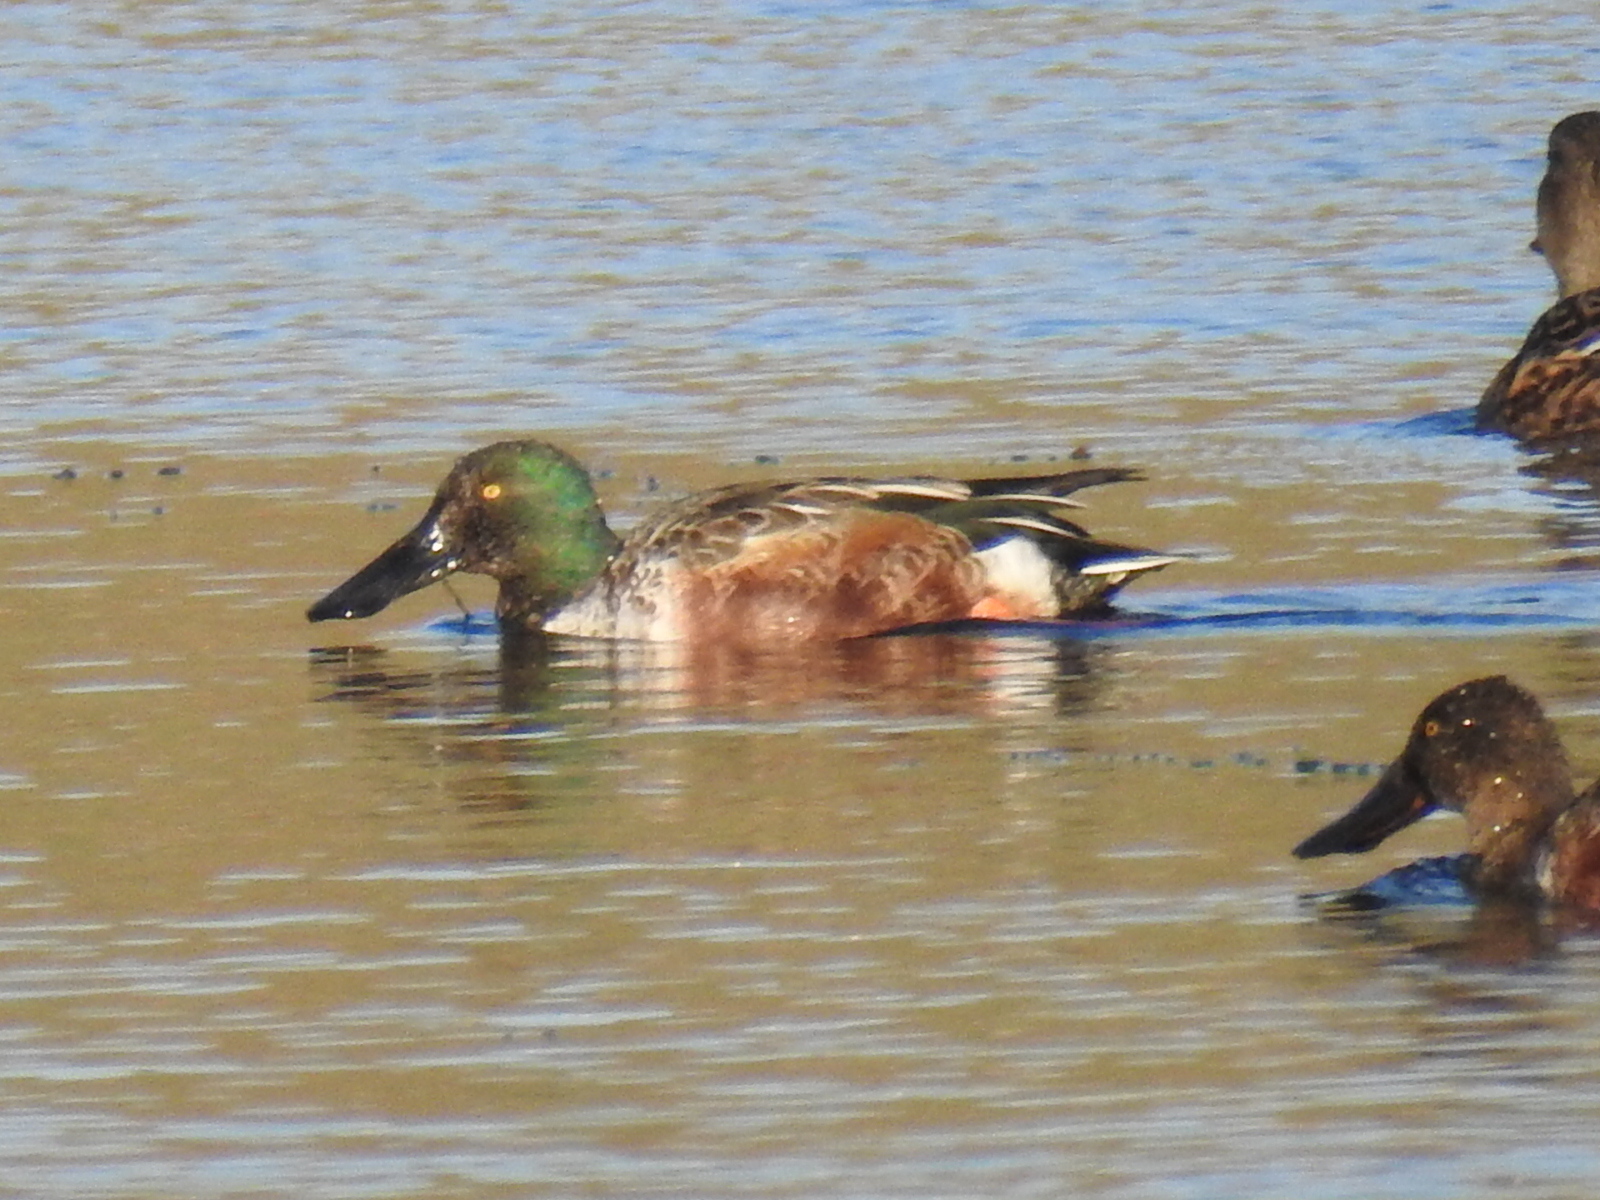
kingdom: Animalia
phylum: Chordata
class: Aves
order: Anseriformes
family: Anatidae
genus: Spatula
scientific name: Spatula clypeata
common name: Northern shoveler
